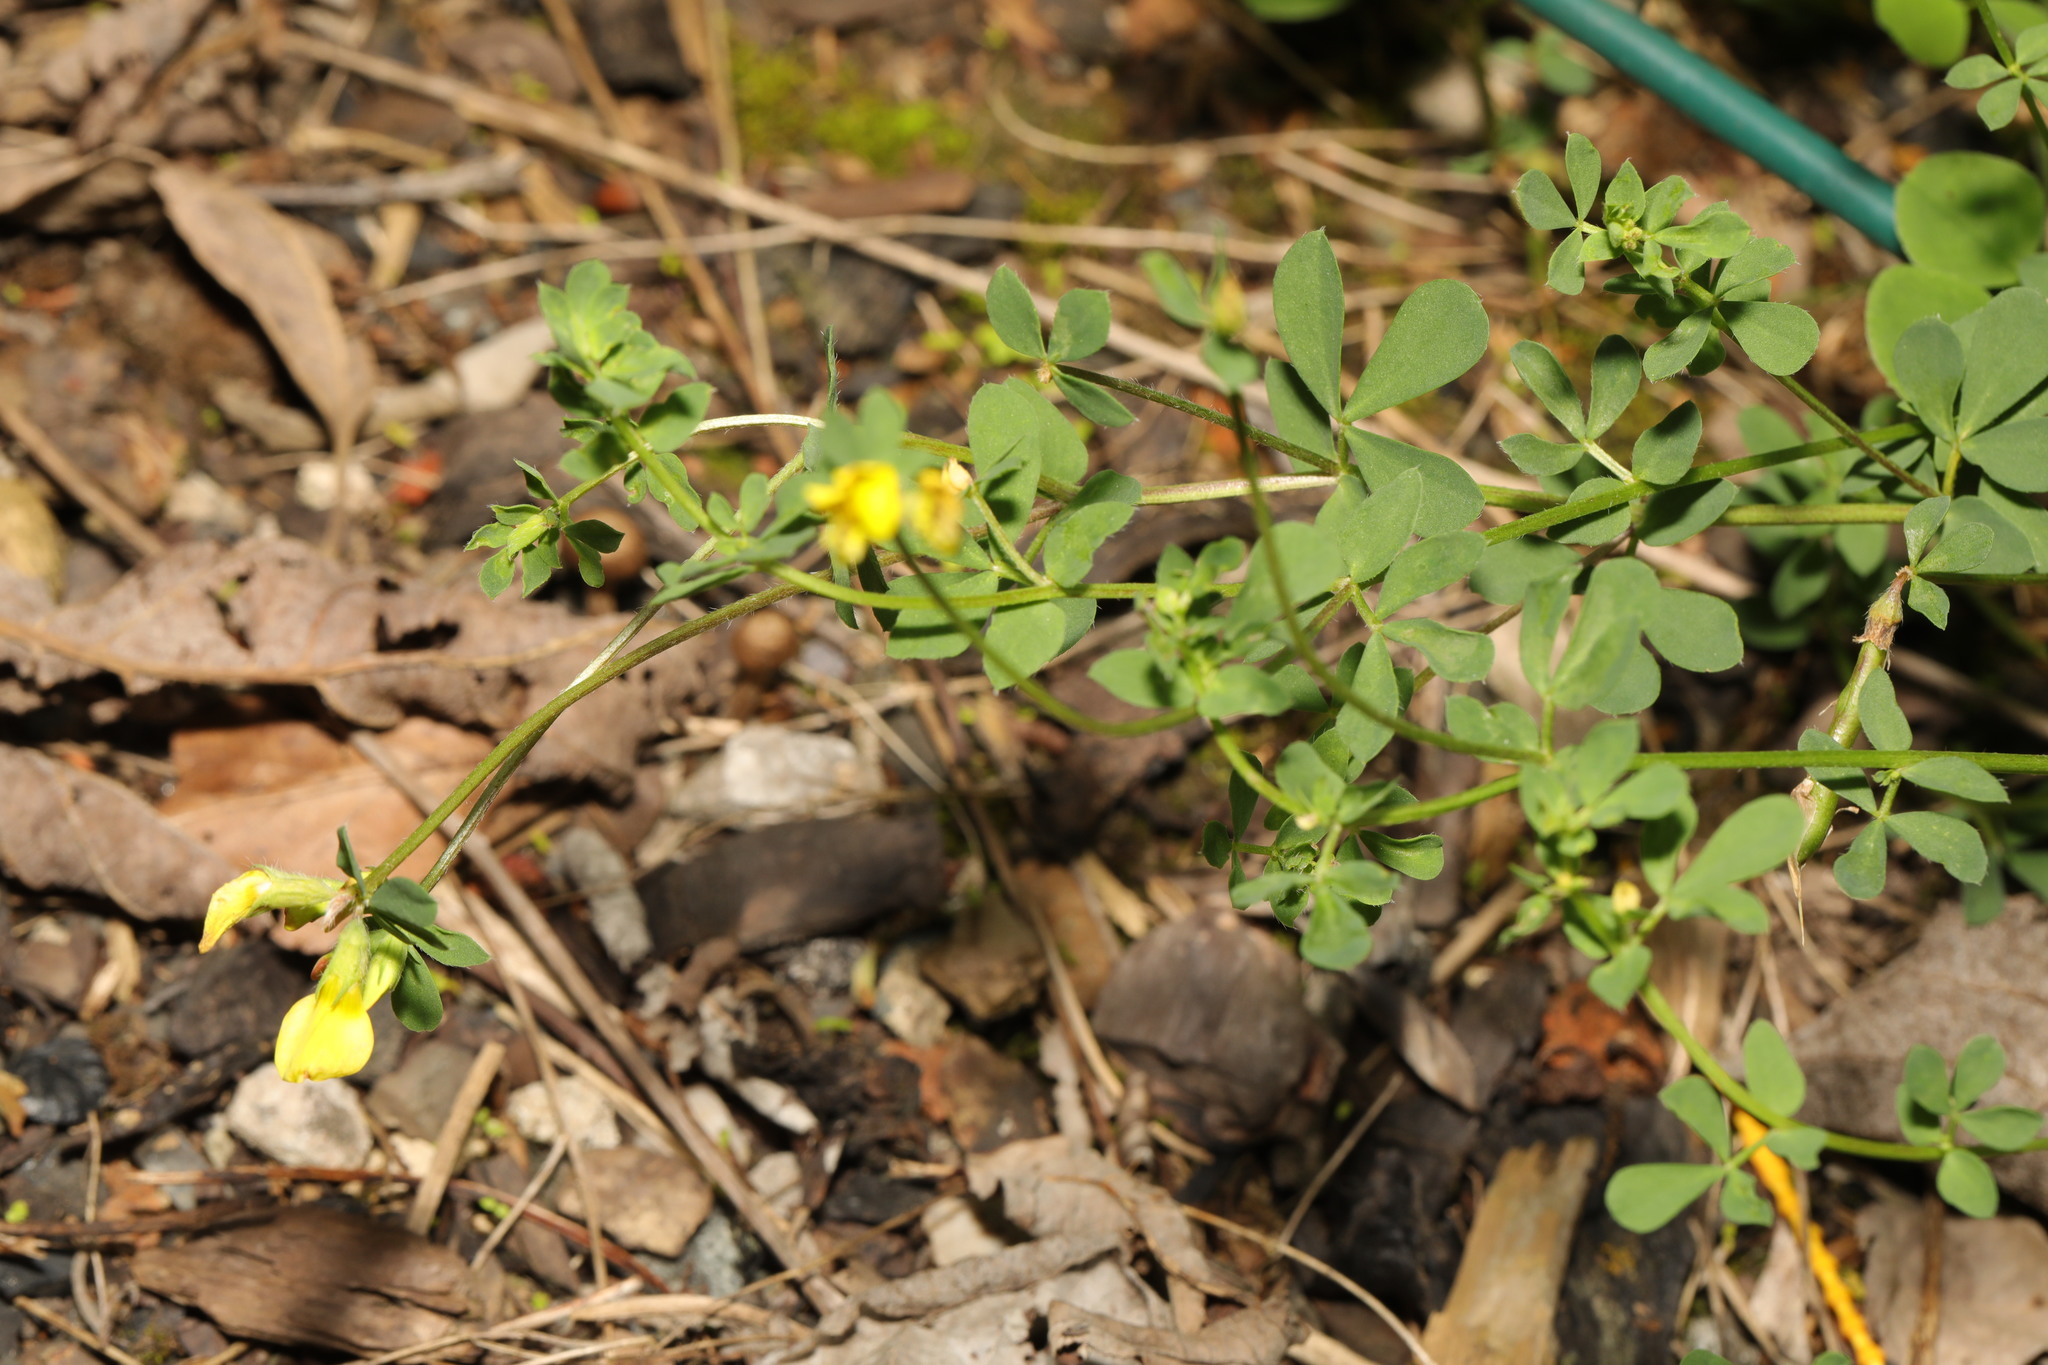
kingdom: Plantae
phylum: Tracheophyta
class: Magnoliopsida
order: Fabales
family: Fabaceae
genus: Lotus
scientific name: Lotus corniculatus
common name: Common bird's-foot-trefoil
